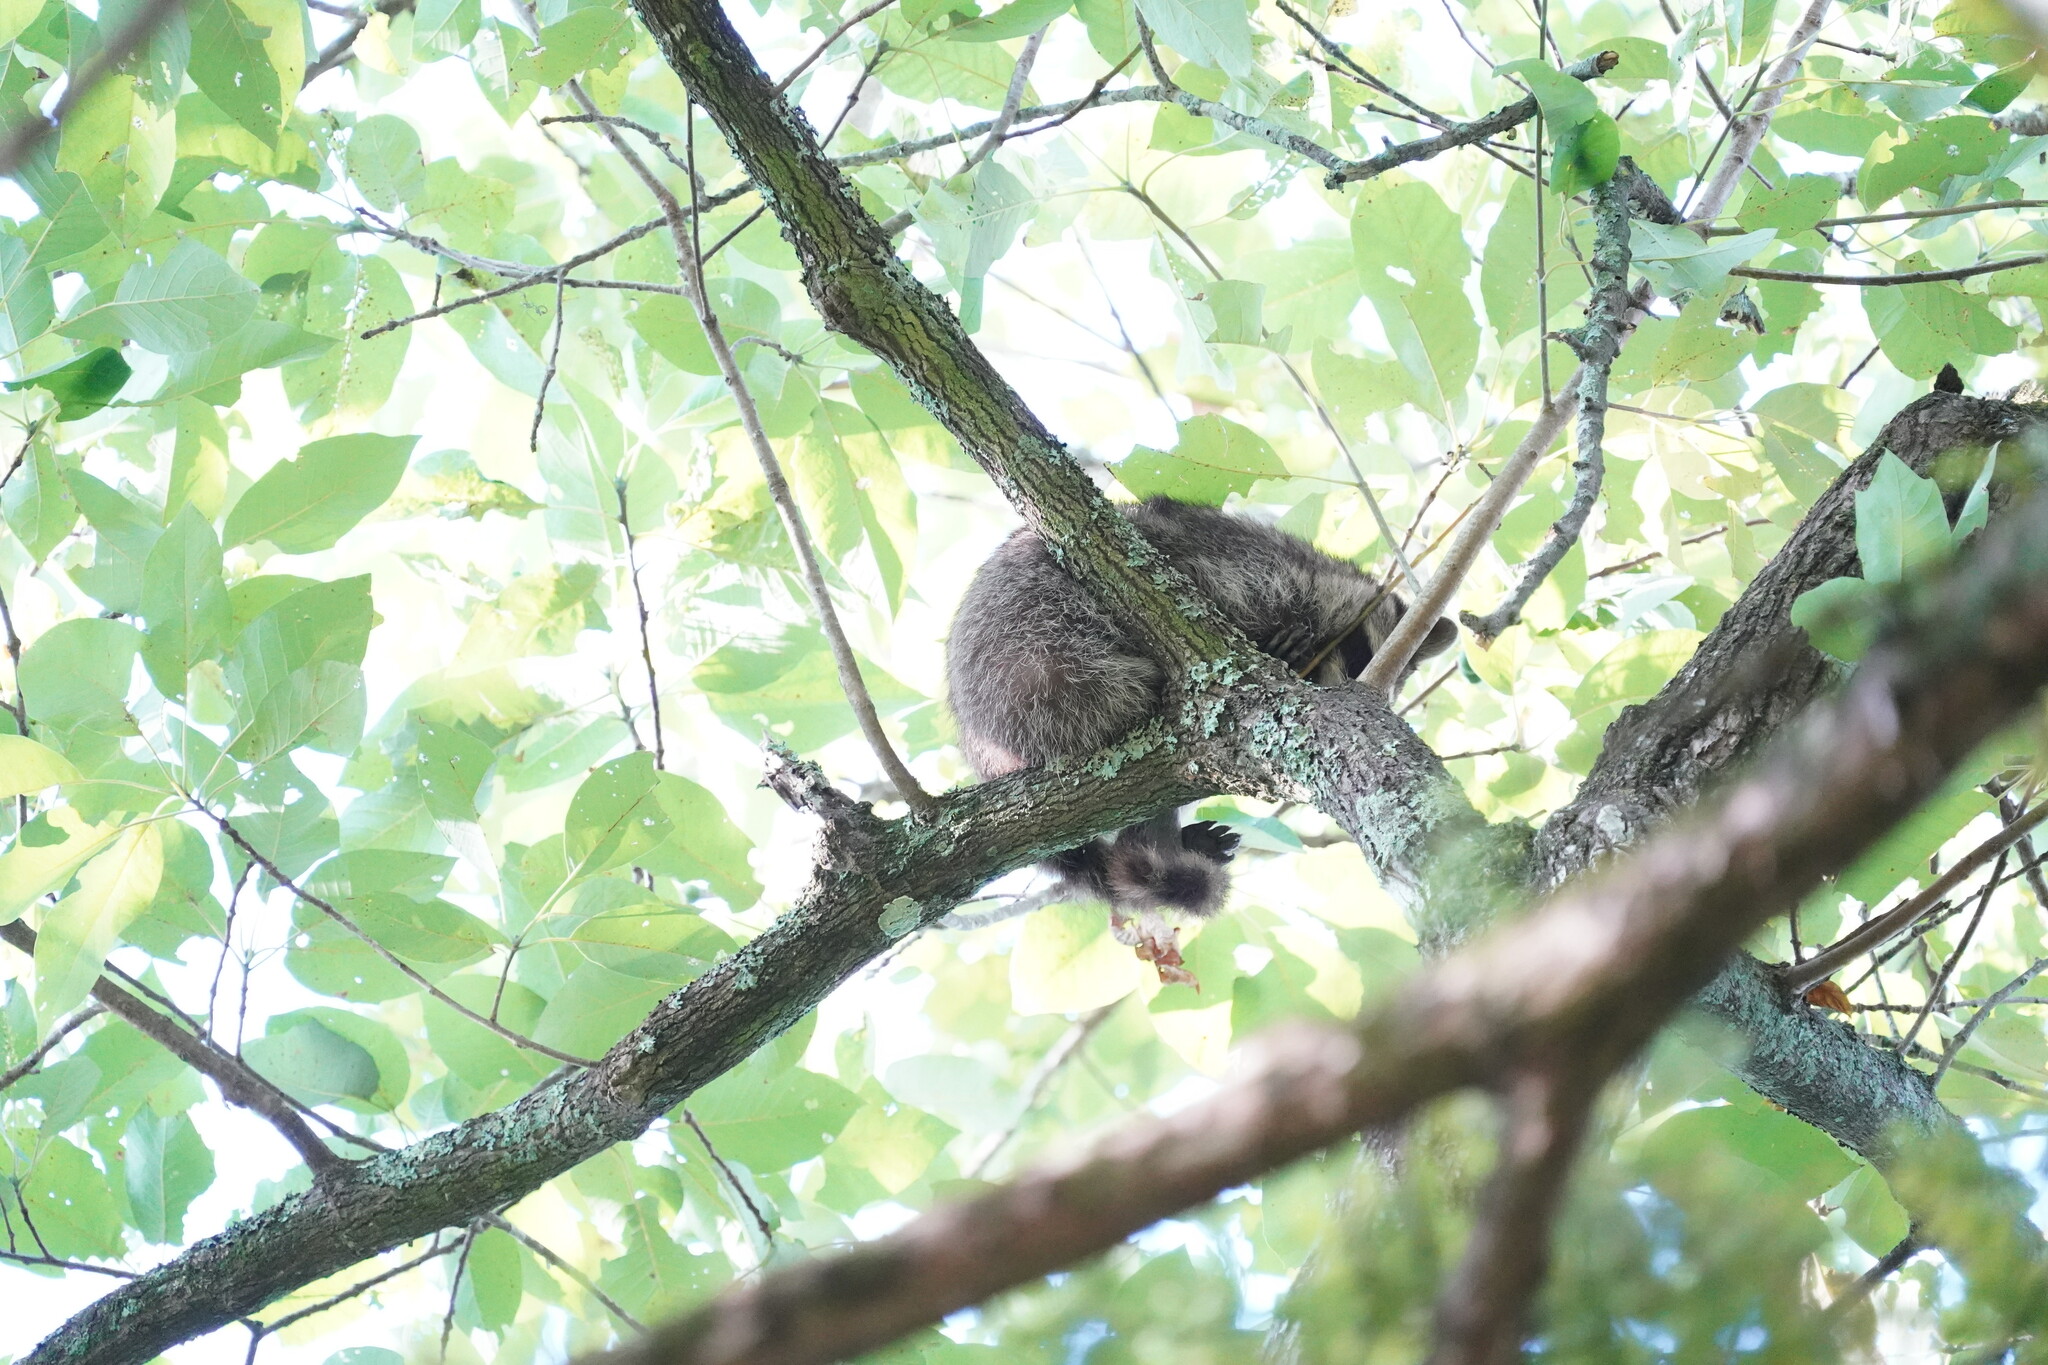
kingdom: Animalia
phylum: Chordata
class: Mammalia
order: Carnivora
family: Procyonidae
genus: Procyon
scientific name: Procyon lotor
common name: Raccoon
